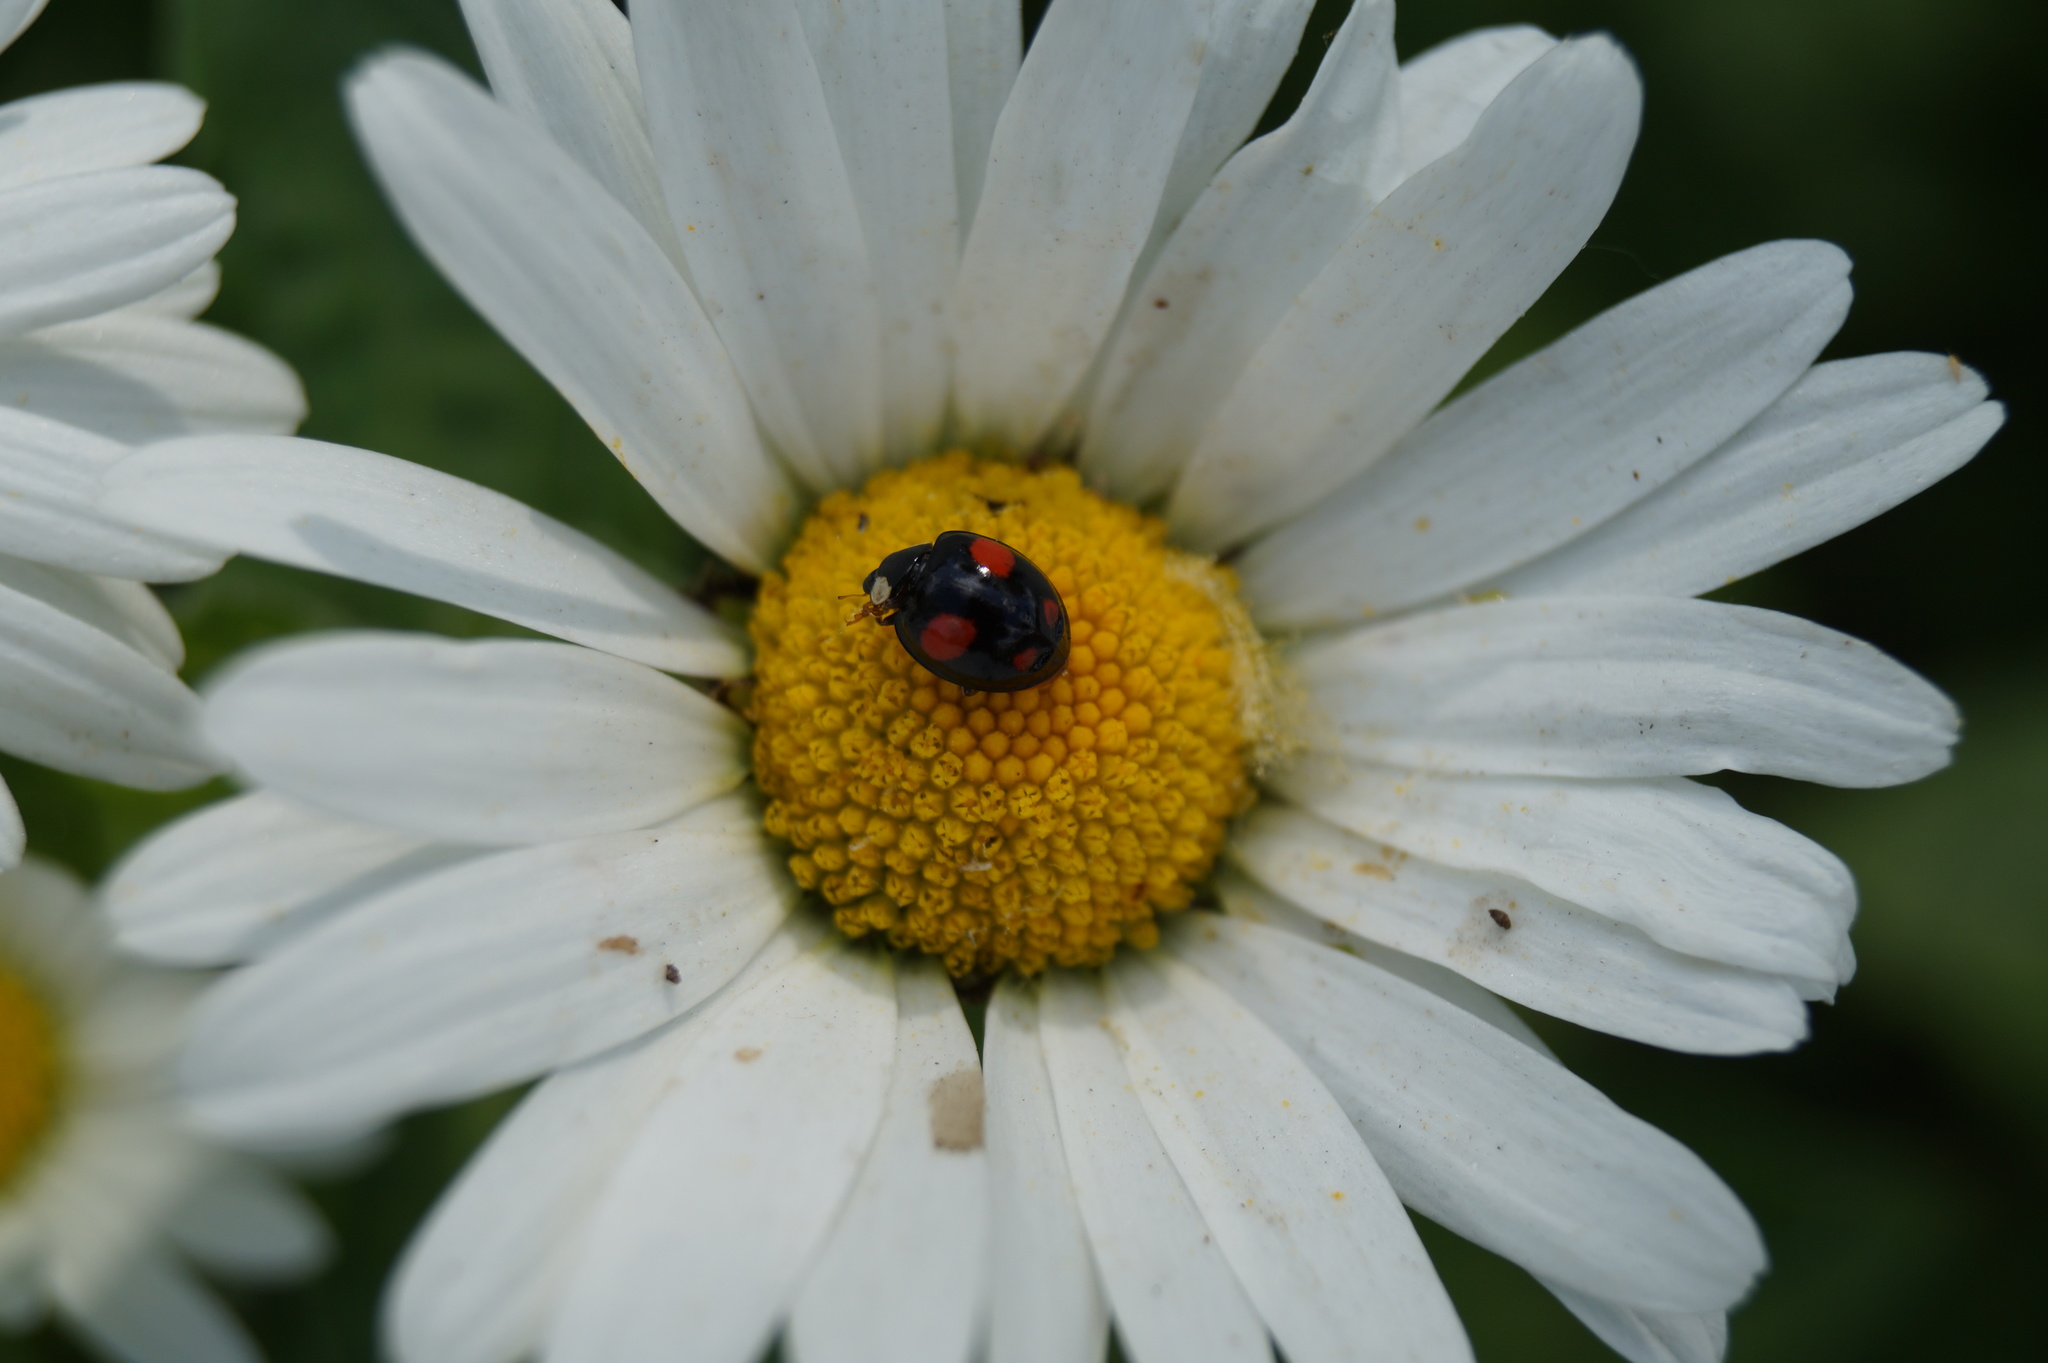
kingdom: Animalia
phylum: Arthropoda
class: Insecta
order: Coleoptera
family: Coccinellidae
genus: Harmonia
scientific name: Harmonia axyridis
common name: Harlequin ladybird
